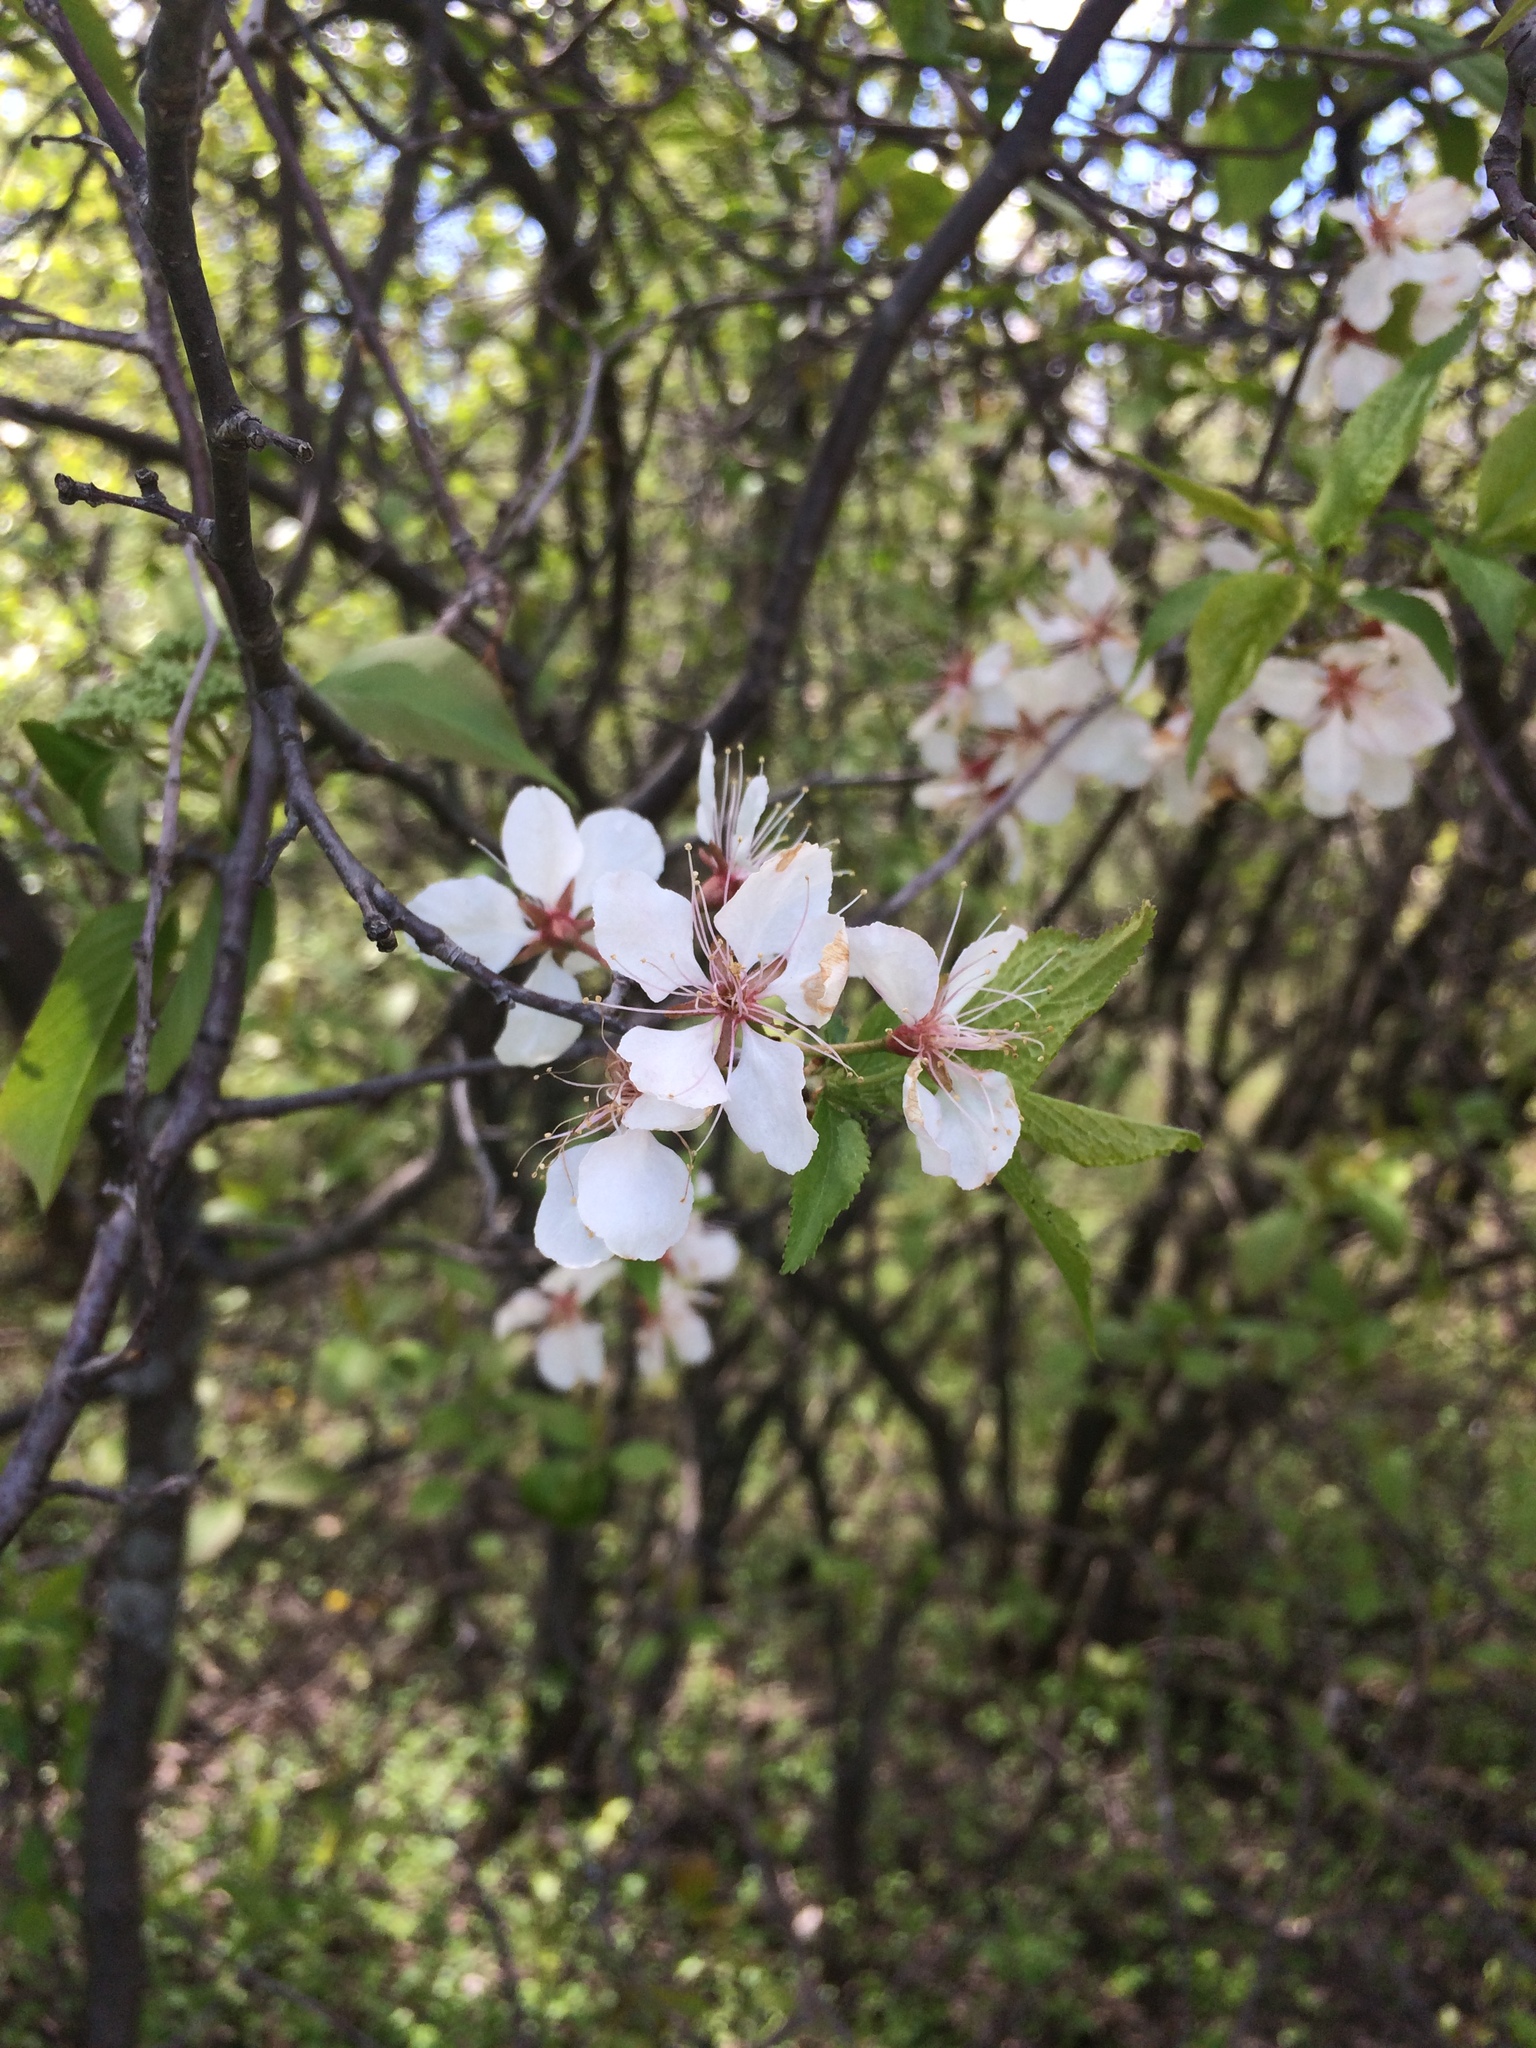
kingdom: Plantae
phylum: Tracheophyta
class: Magnoliopsida
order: Rosales
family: Rosaceae
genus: Prunus
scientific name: Prunus nigra
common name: Black plum
